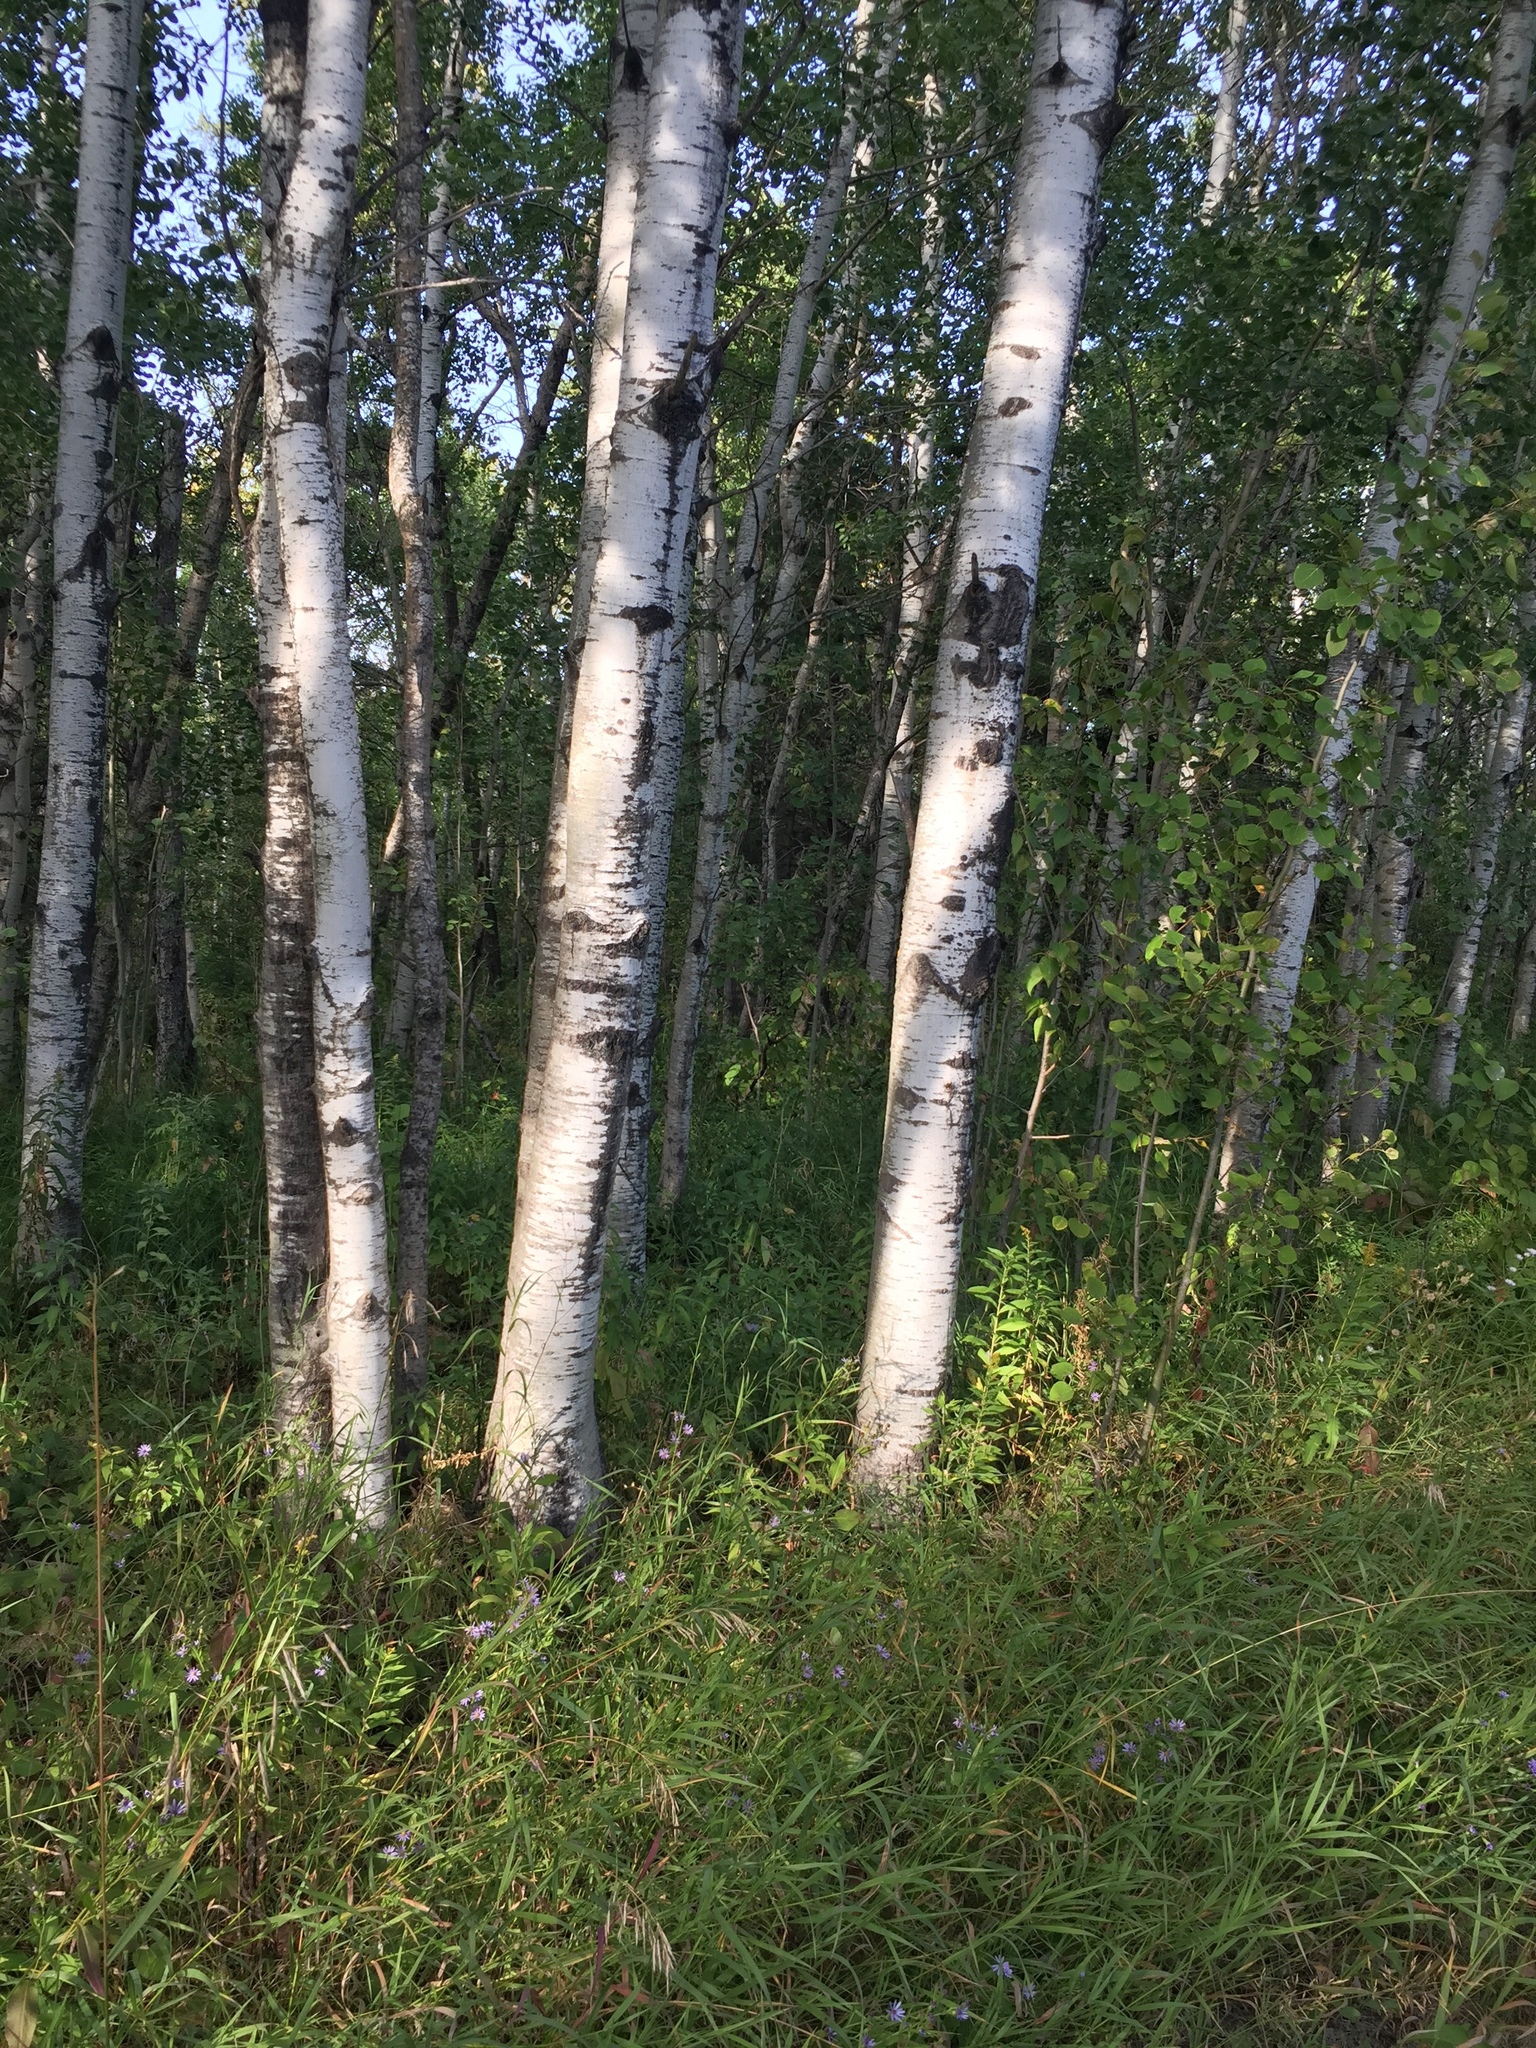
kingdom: Plantae
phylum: Tracheophyta
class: Magnoliopsida
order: Malpighiales
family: Salicaceae
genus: Populus
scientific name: Populus tremuloides
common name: Quaking aspen
